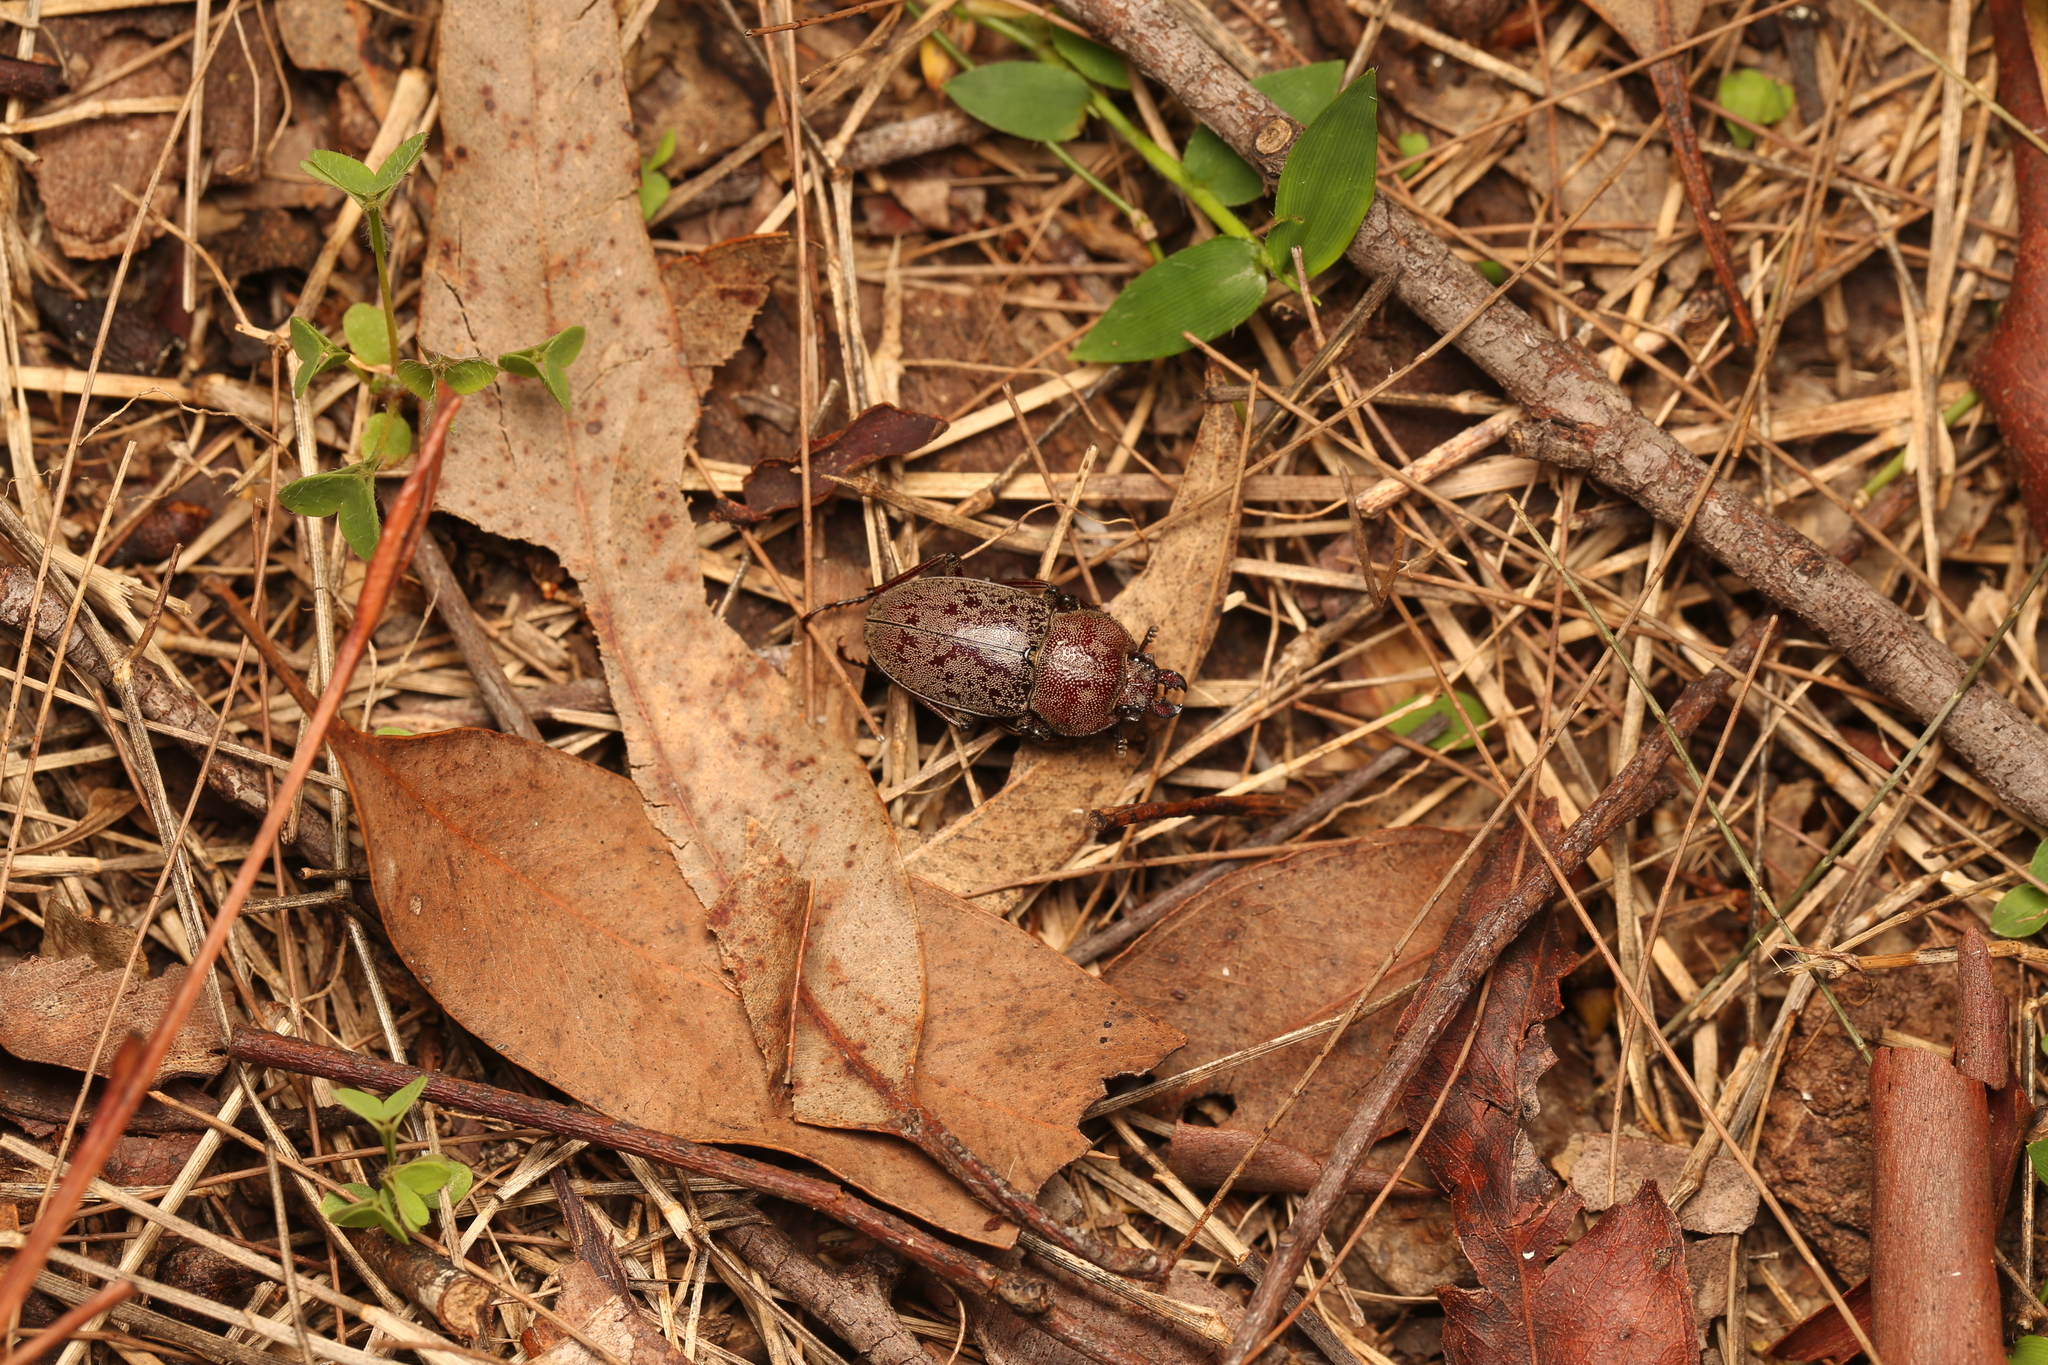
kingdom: Animalia
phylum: Arthropoda
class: Insecta
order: Coleoptera
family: Lucanidae
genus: Cacostomus
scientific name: Cacostomus squamosus
